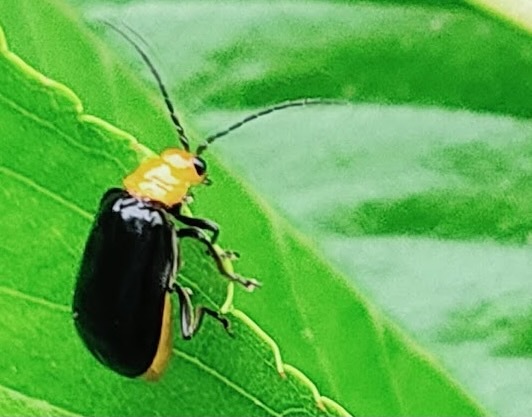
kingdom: Animalia
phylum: Arthropoda
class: Insecta
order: Coleoptera
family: Chrysomelidae
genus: Aulacophora
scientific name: Aulacophora nigripennis
